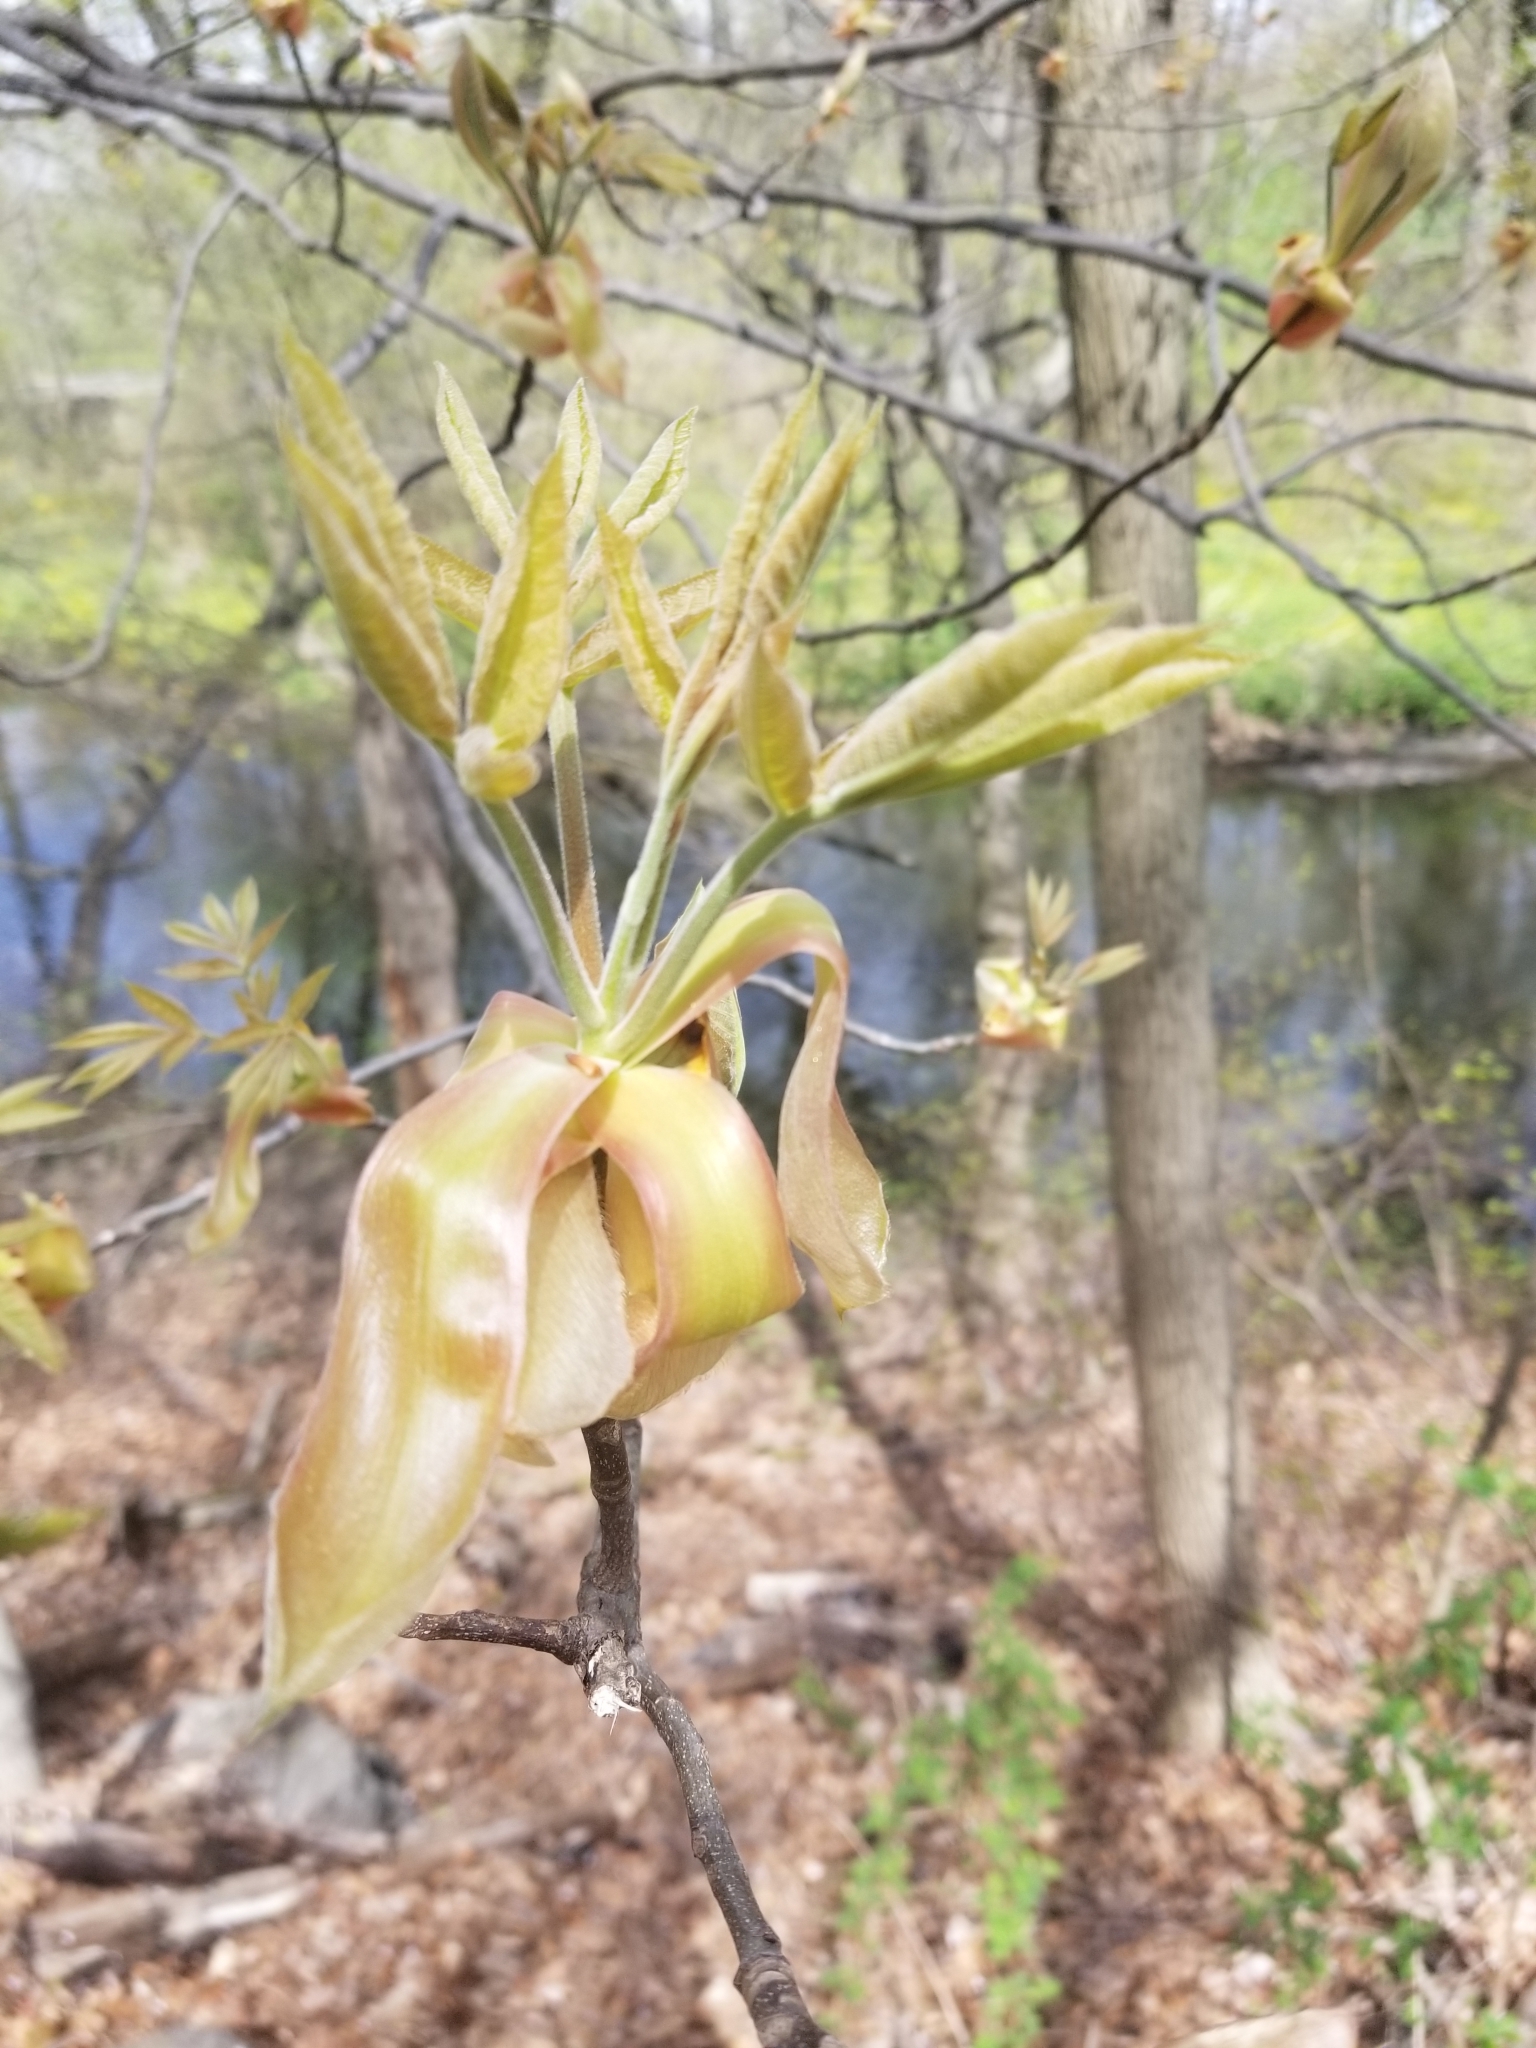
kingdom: Plantae
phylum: Tracheophyta
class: Magnoliopsida
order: Fagales
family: Juglandaceae
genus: Carya
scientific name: Carya
